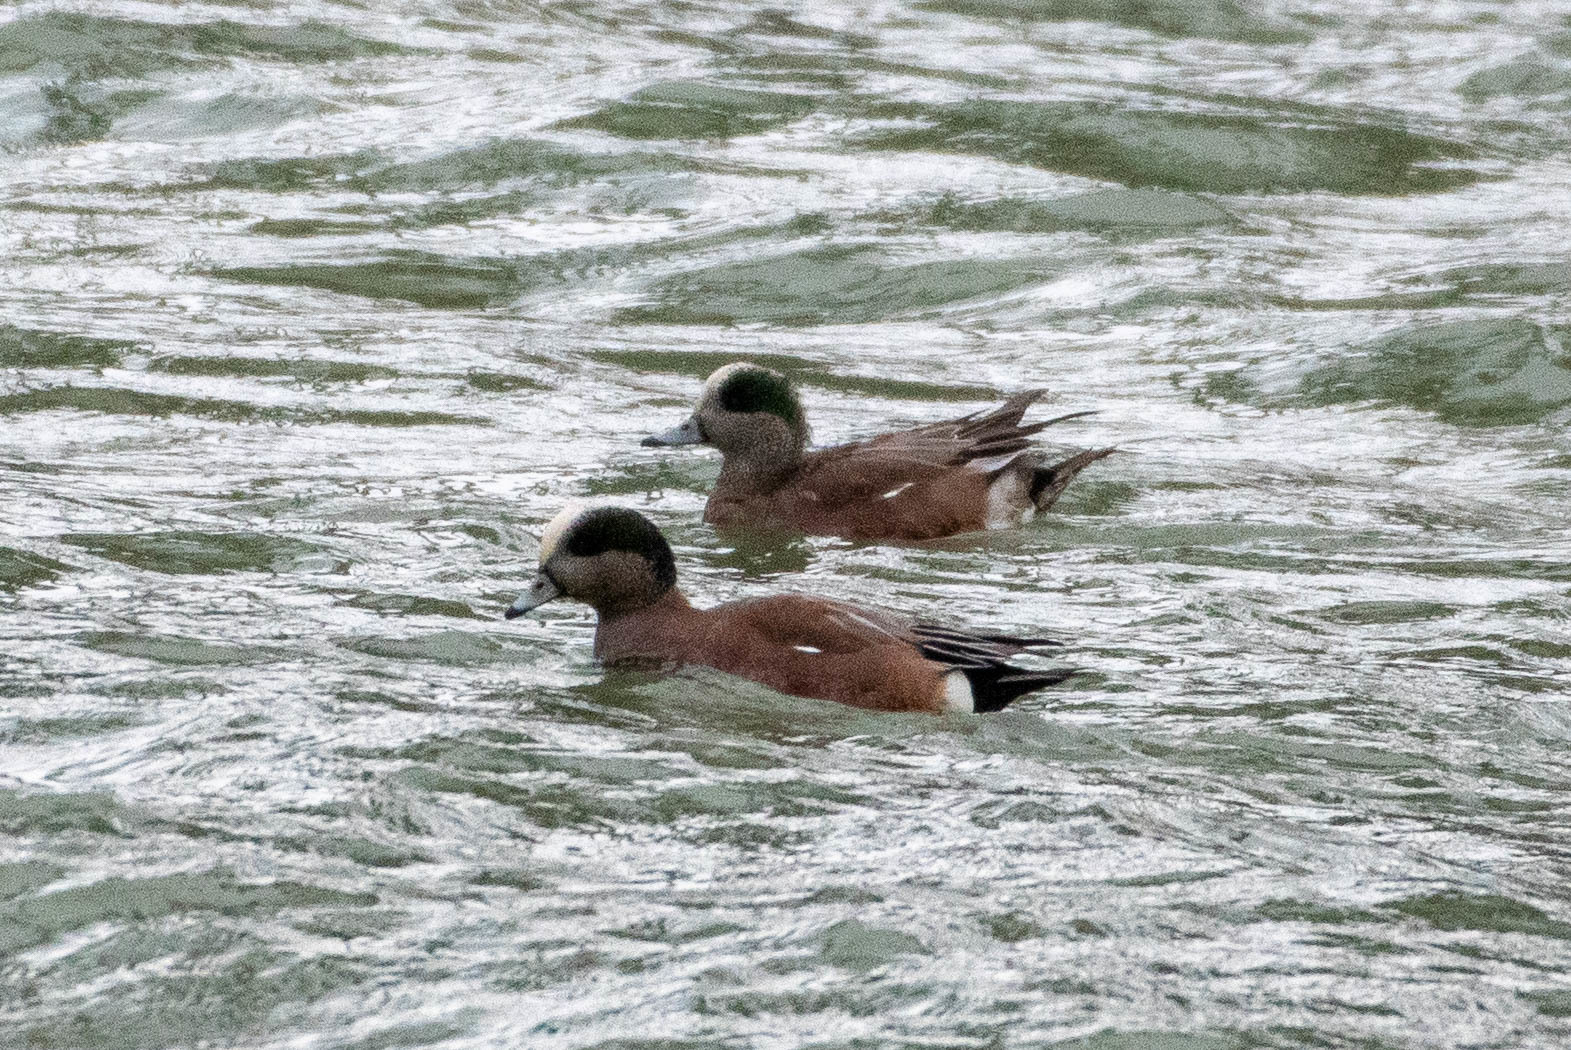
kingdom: Animalia
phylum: Chordata
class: Aves
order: Anseriformes
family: Anatidae
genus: Mareca
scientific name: Mareca americana
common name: American wigeon
